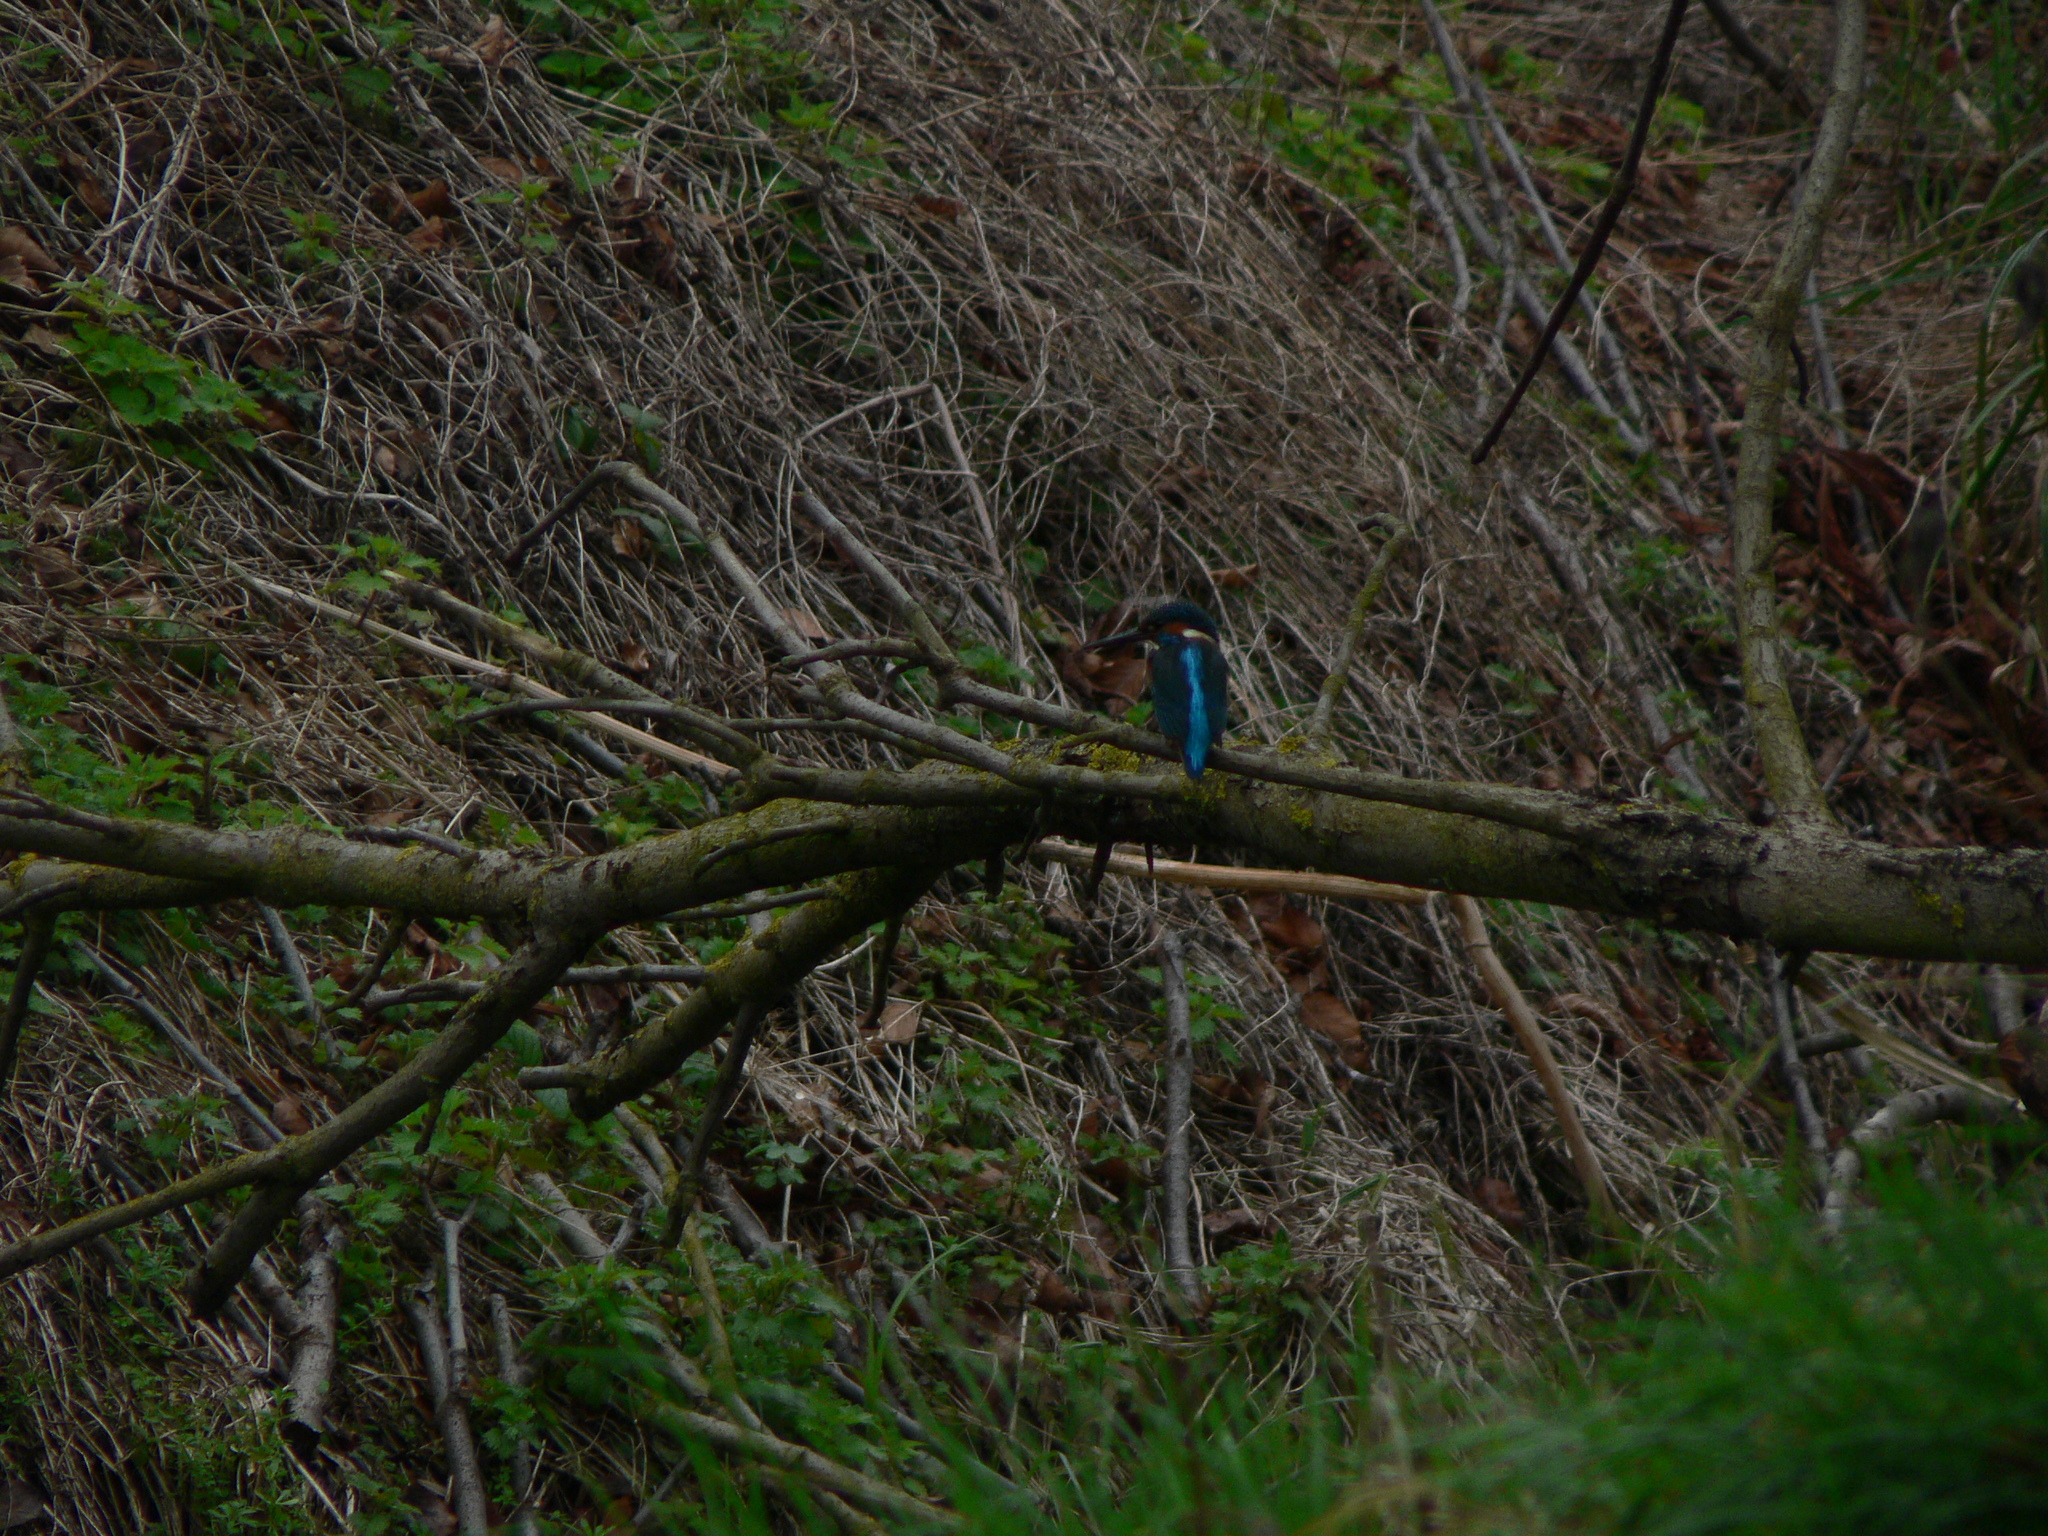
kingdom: Animalia
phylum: Chordata
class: Aves
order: Coraciiformes
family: Alcedinidae
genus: Alcedo
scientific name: Alcedo atthis
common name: Common kingfisher
